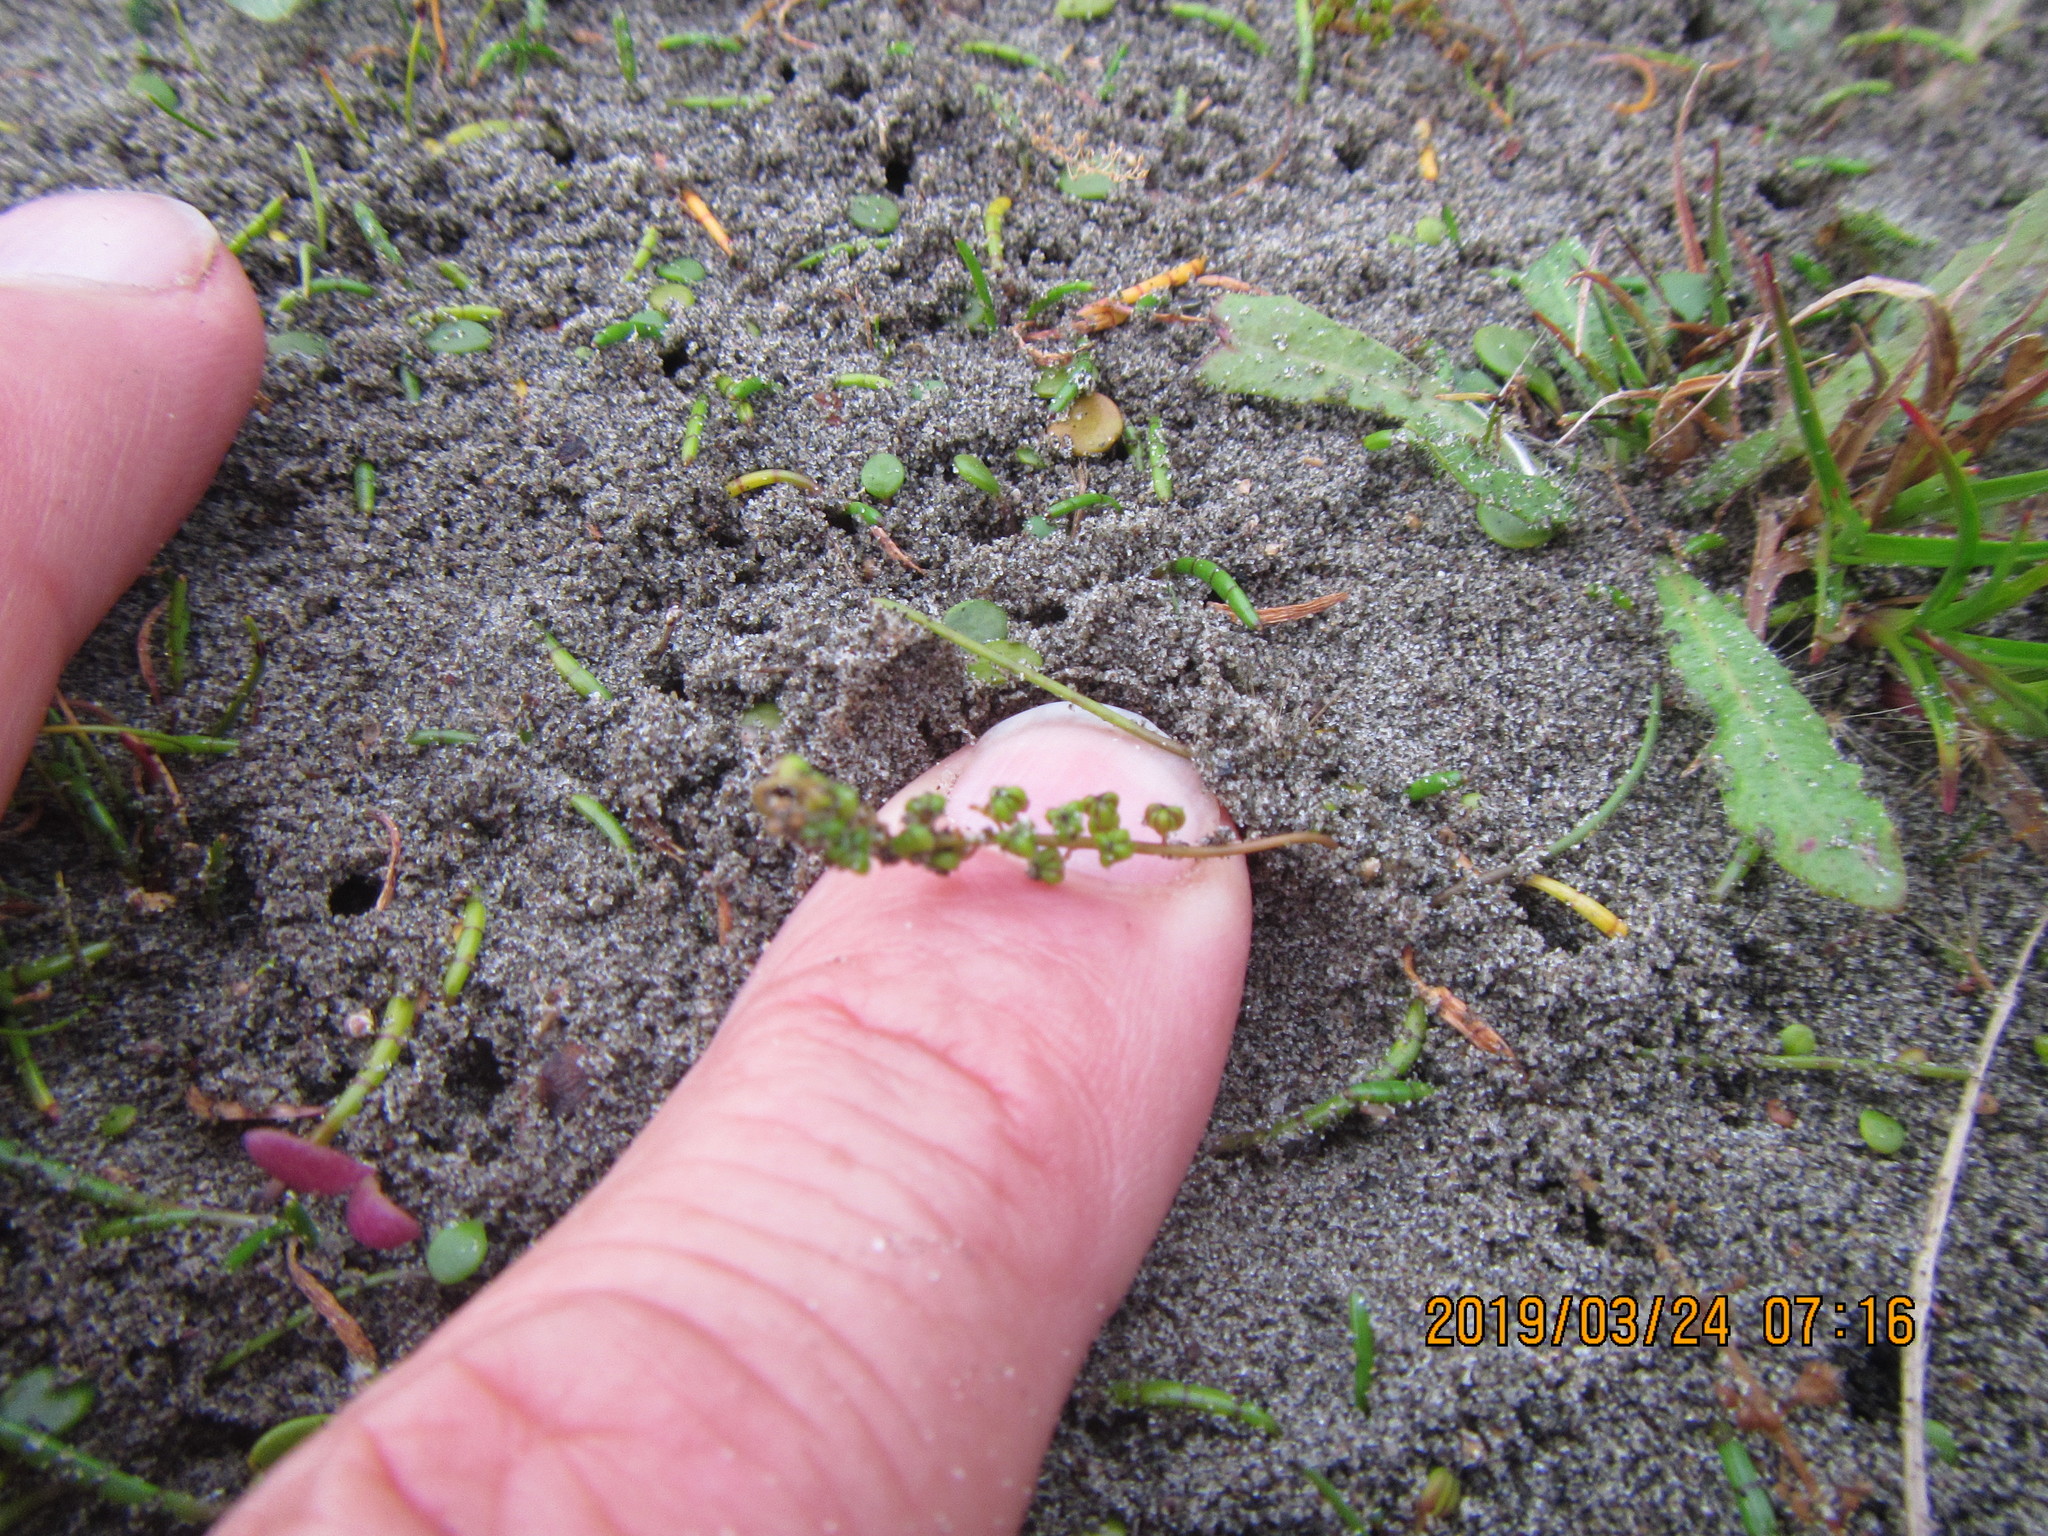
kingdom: Plantae
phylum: Tracheophyta
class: Liliopsida
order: Alismatales
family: Juncaginaceae
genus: Triglochin
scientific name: Triglochin striata
